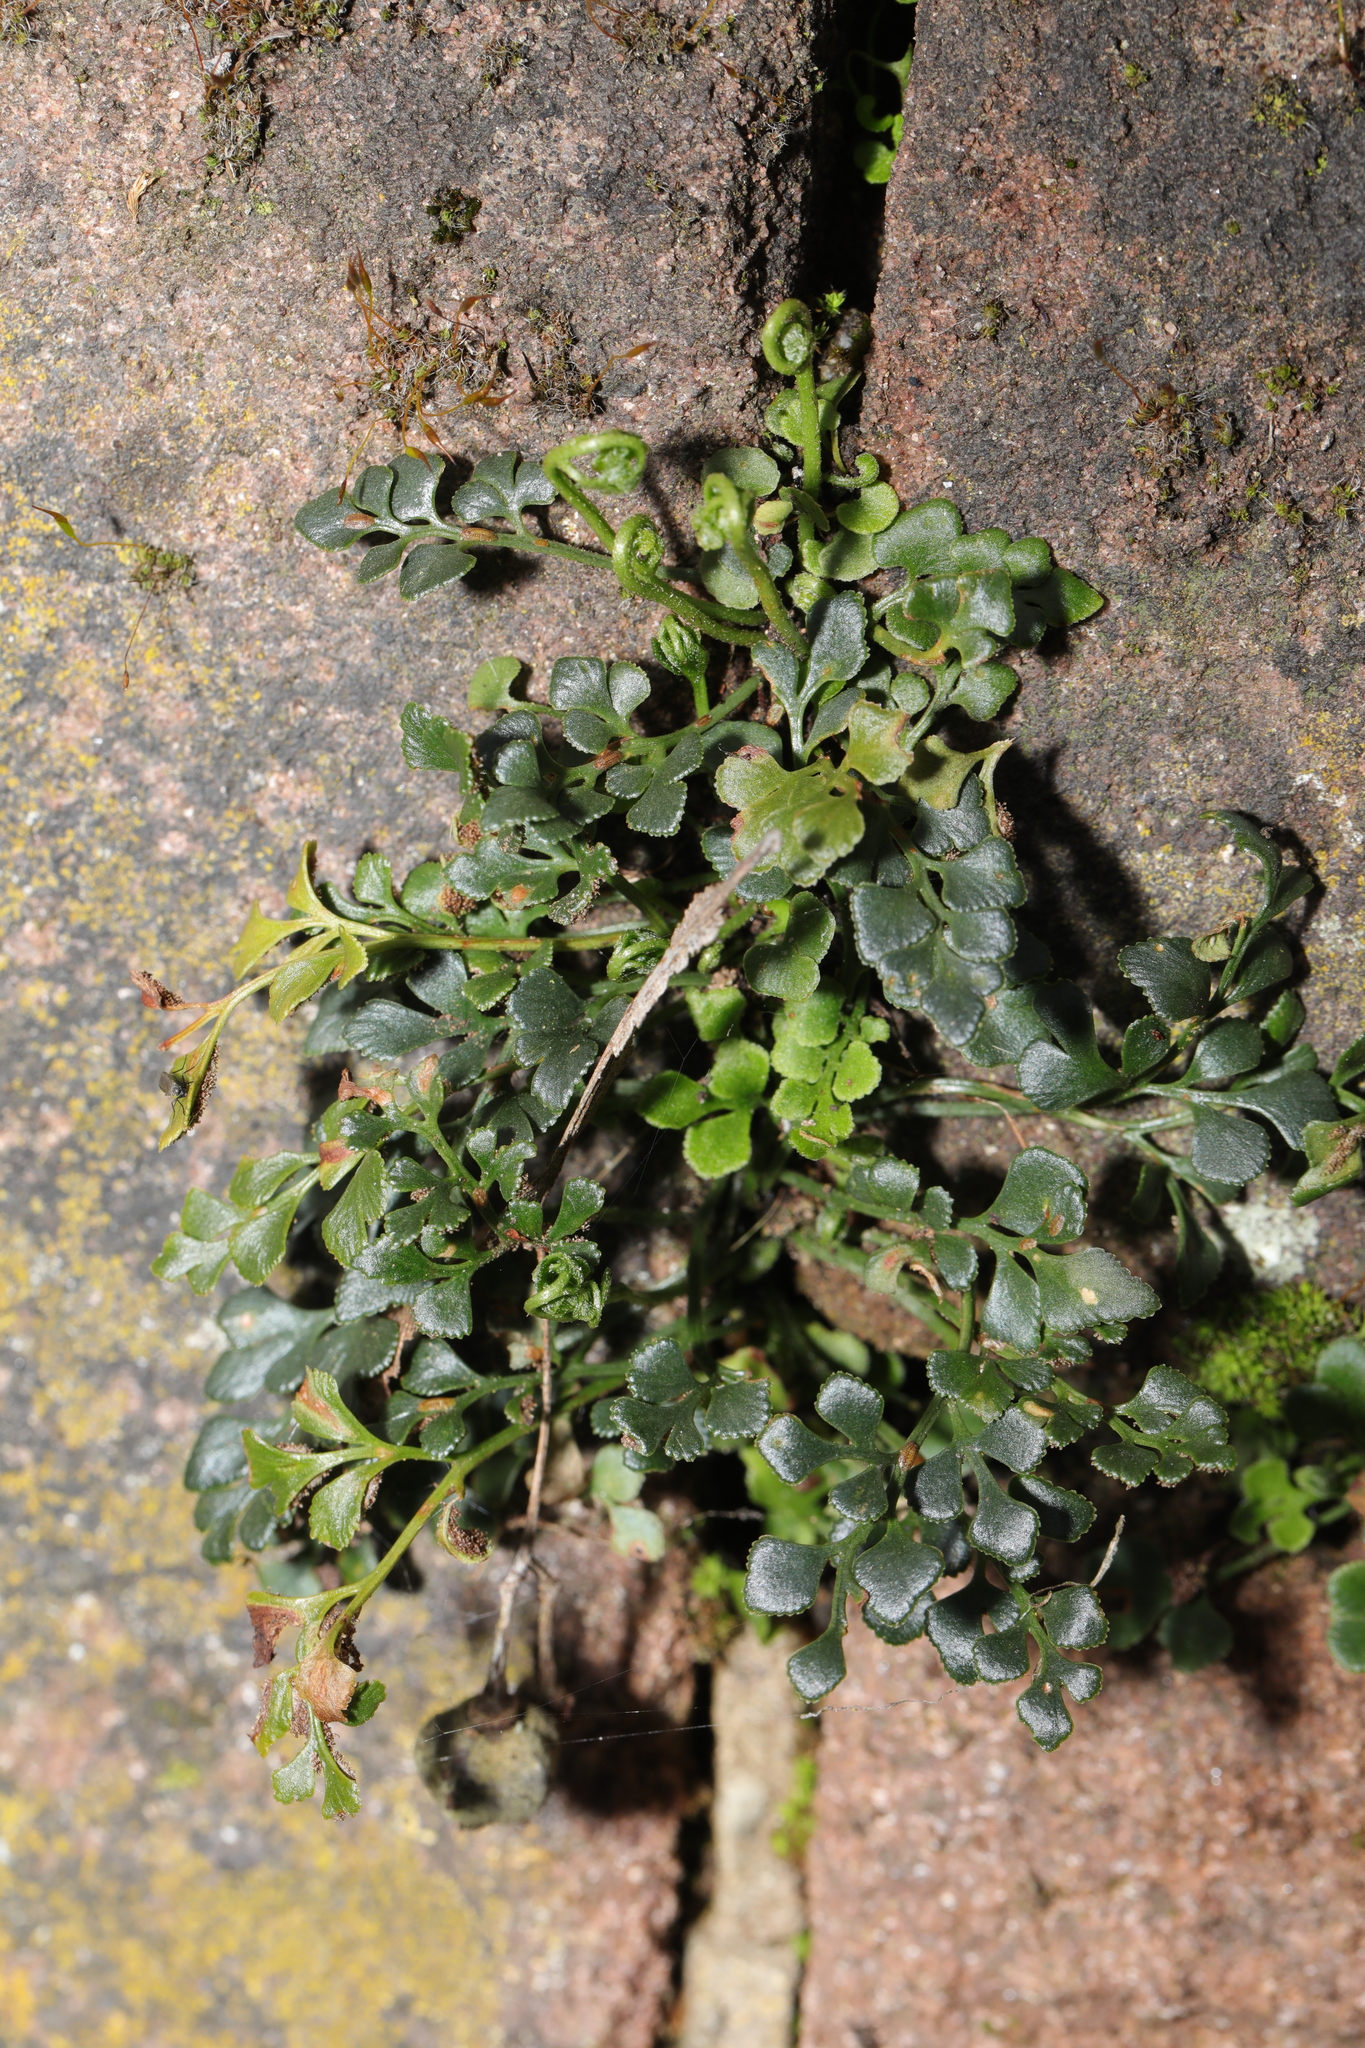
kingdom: Plantae
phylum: Tracheophyta
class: Polypodiopsida
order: Polypodiales
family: Aspleniaceae
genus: Asplenium
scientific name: Asplenium ruta-muraria
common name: Wall-rue
